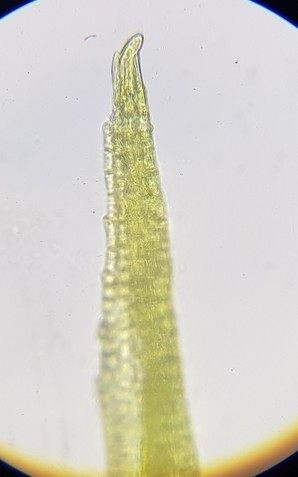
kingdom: Plantae
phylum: Bryophyta
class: Bryopsida
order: Dicranales
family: Ditrichaceae
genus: Ceratodon
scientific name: Ceratodon purpureus
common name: Redshank
